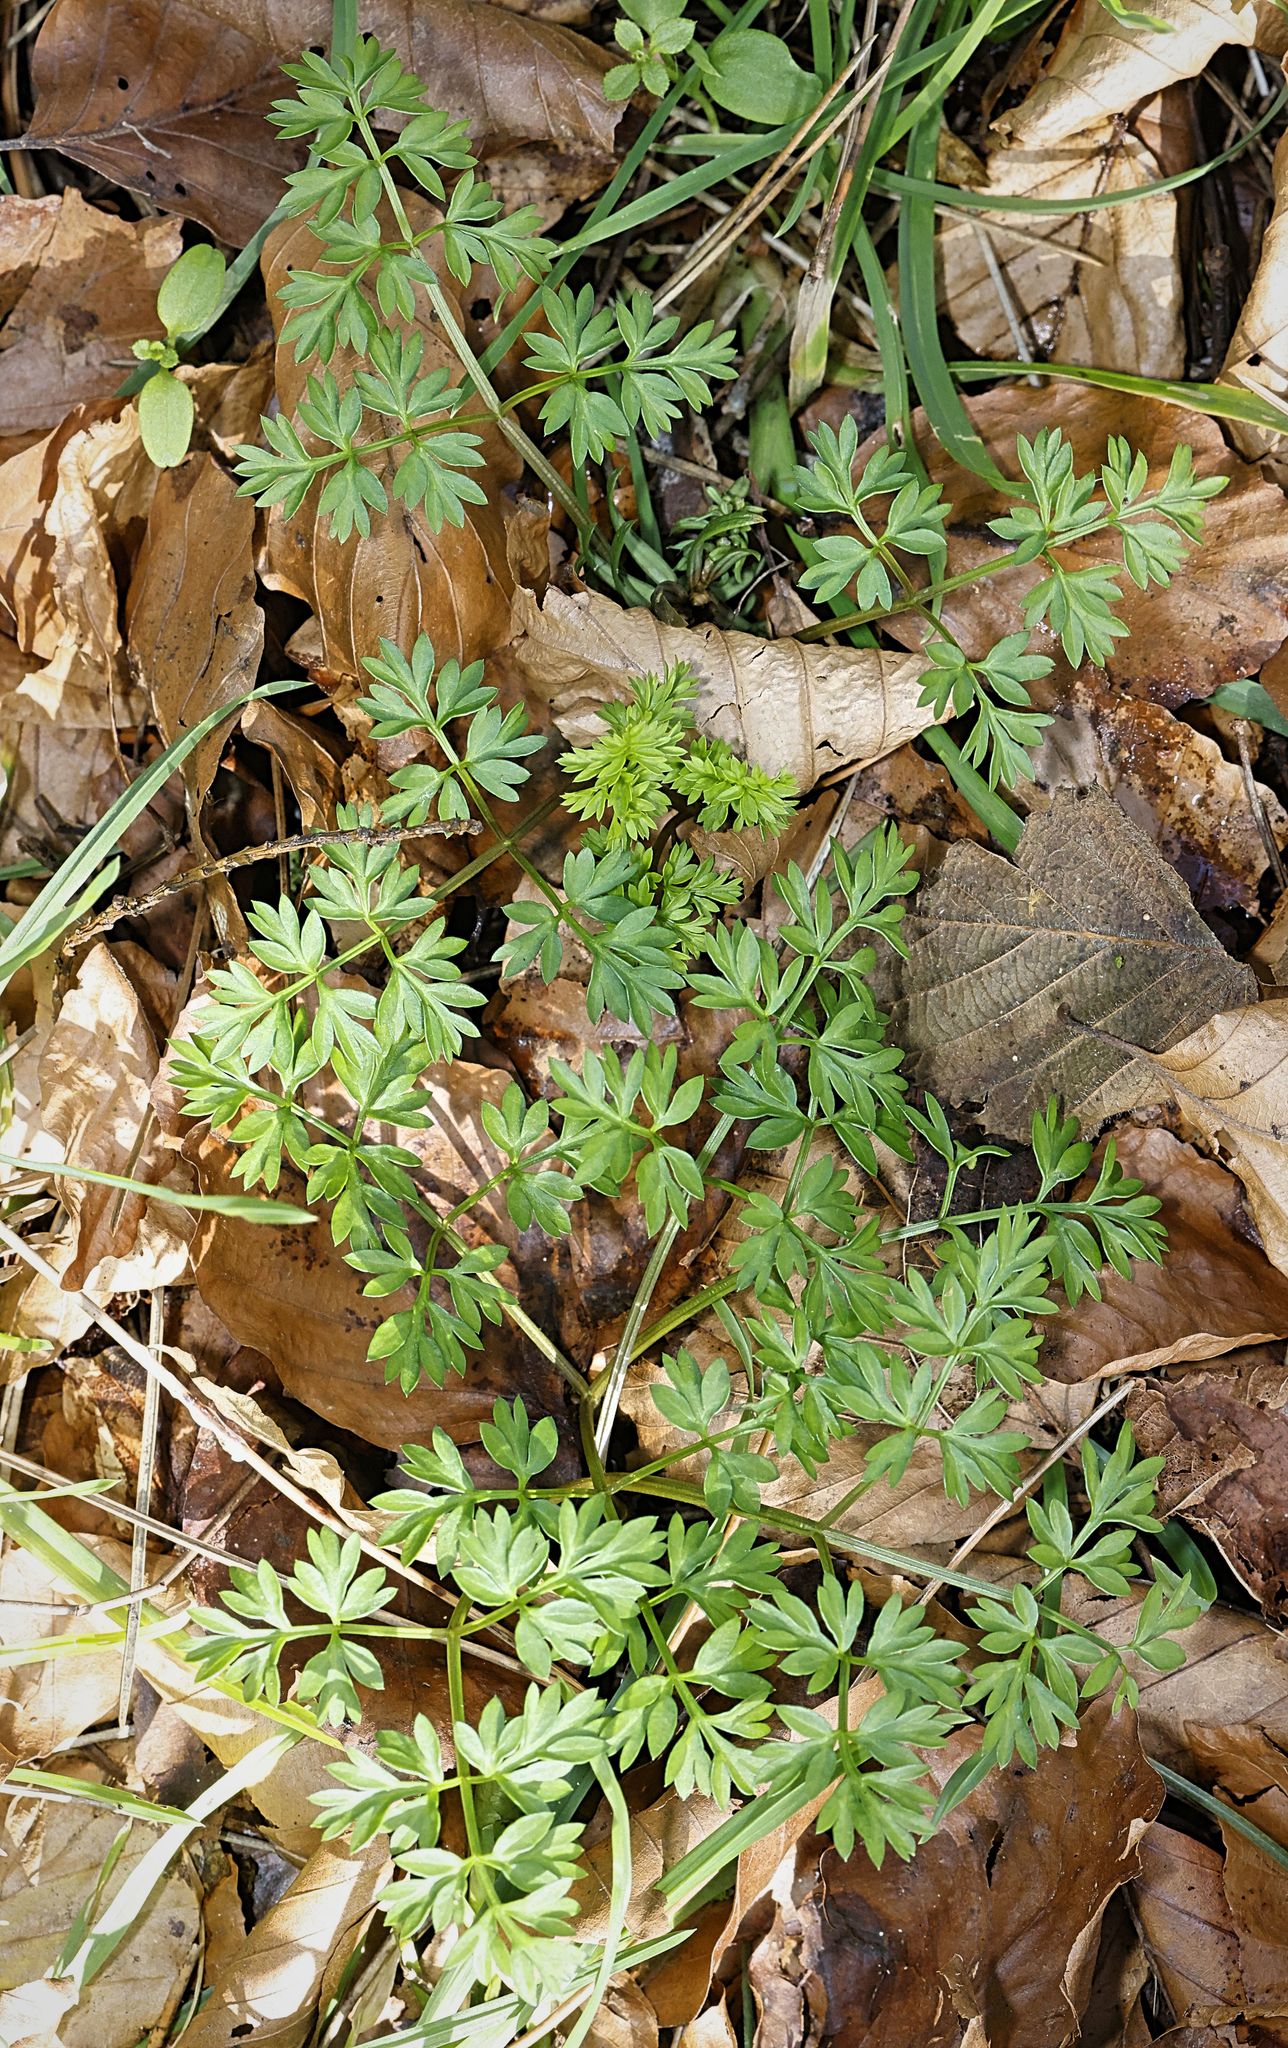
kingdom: Plantae
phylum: Tracheophyta
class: Magnoliopsida
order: Apiales
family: Apiaceae
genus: Conopodium
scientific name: Conopodium majus
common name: Pignut
